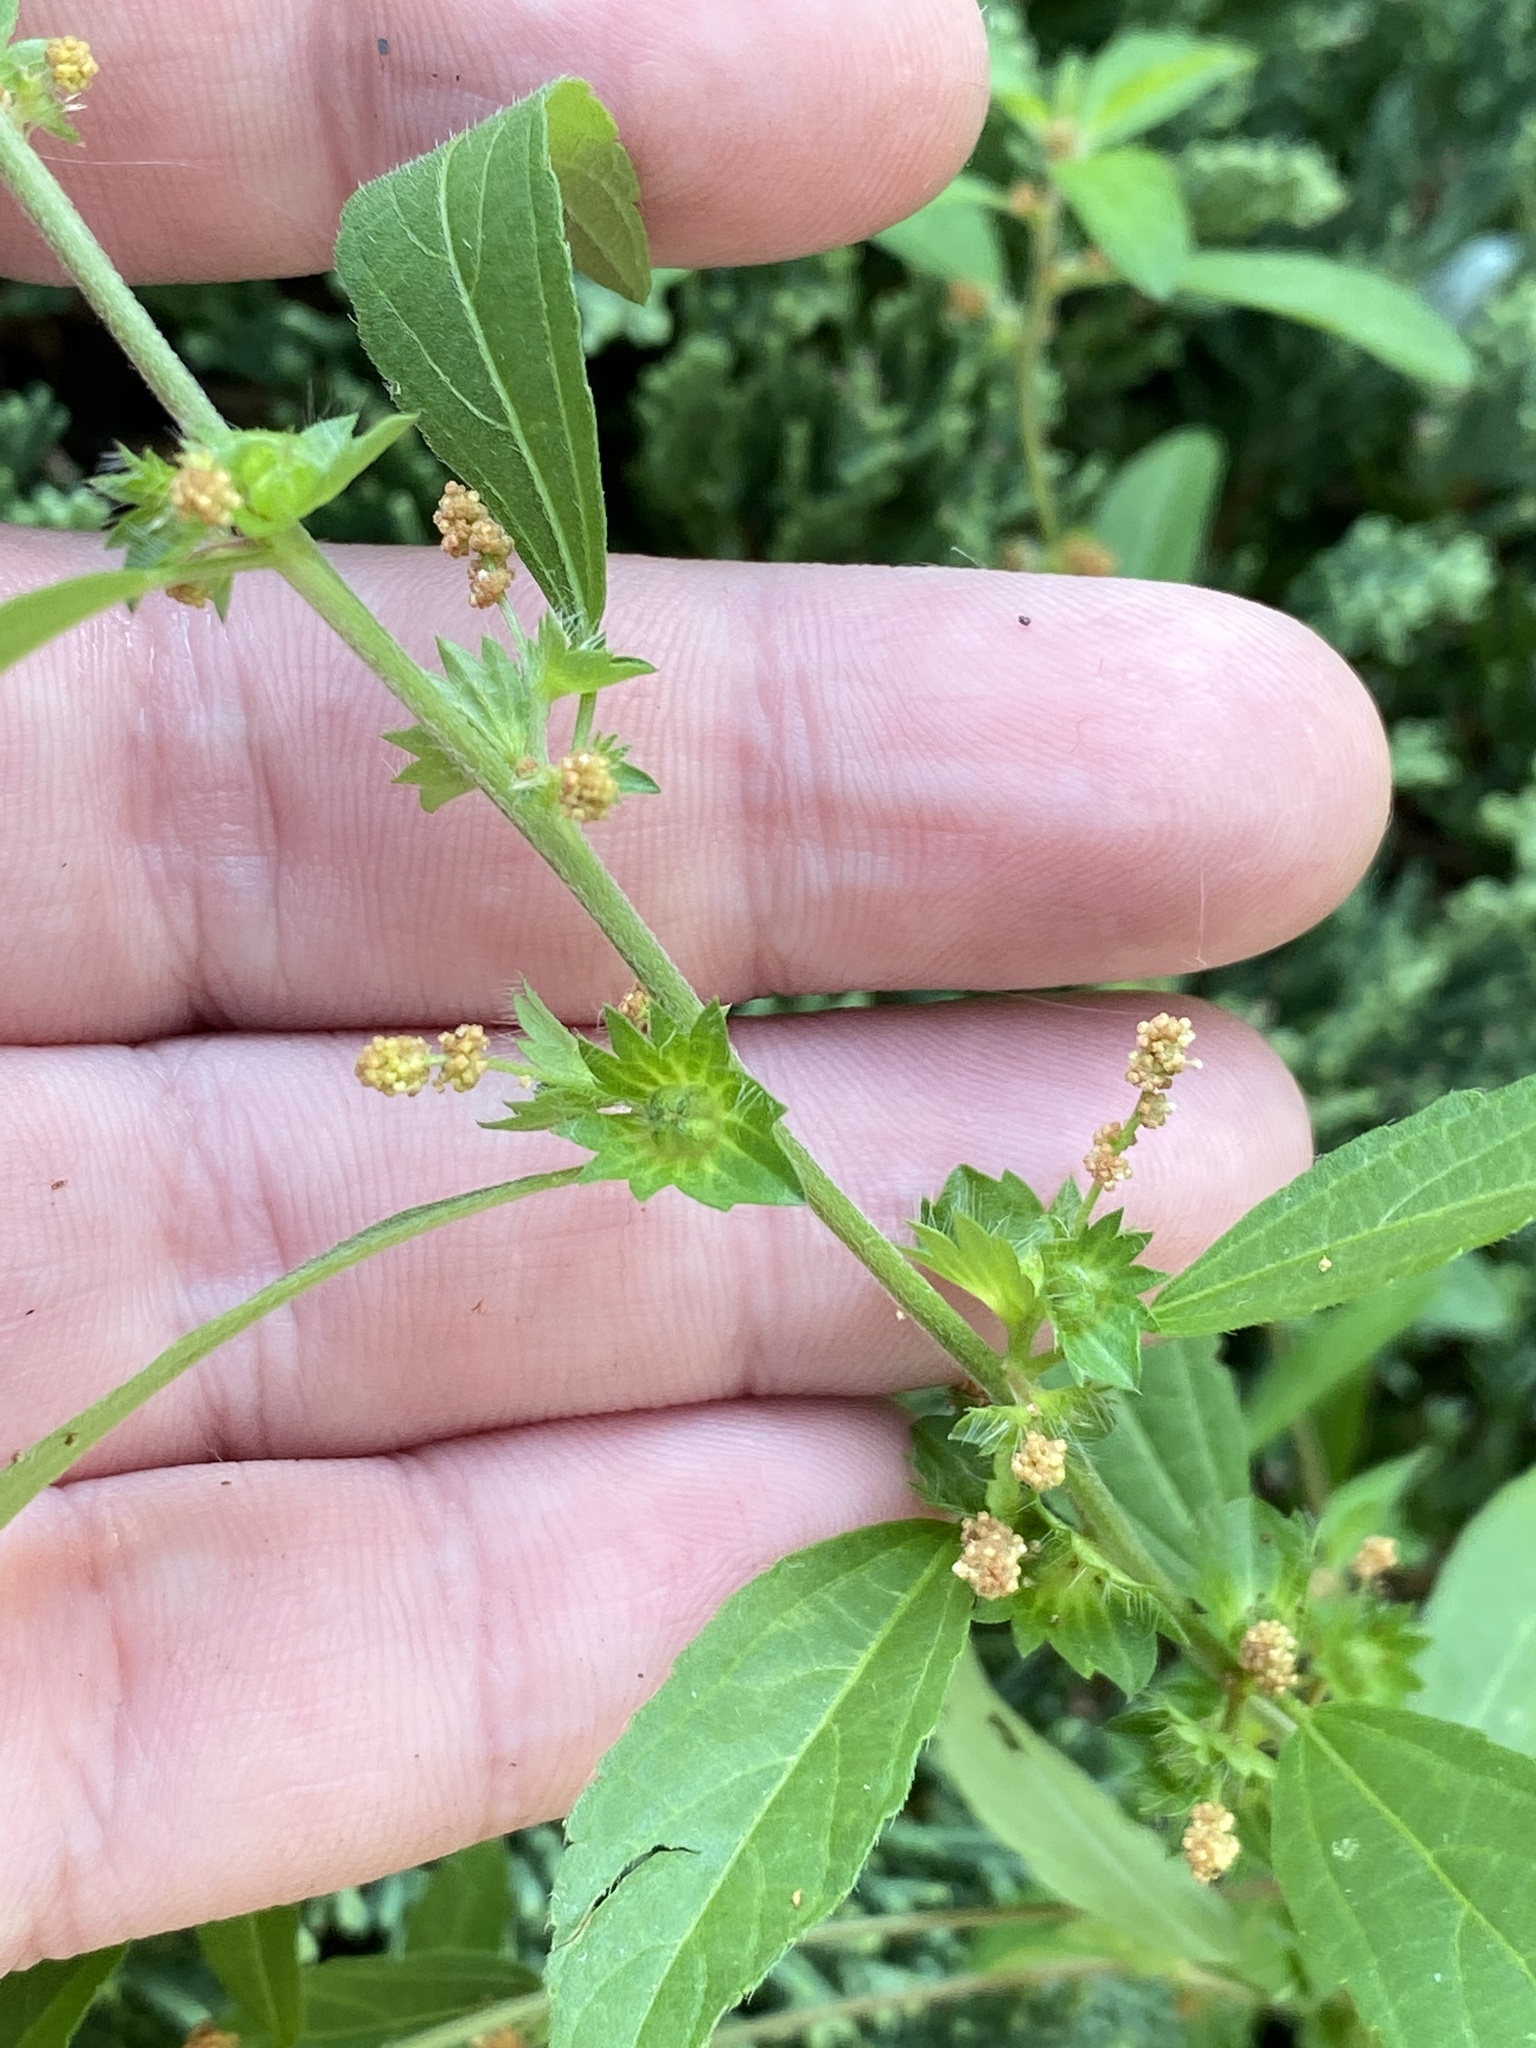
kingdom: Plantae
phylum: Tracheophyta
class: Magnoliopsida
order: Malpighiales
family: Euphorbiaceae
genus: Acalypha
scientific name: Acalypha virginica
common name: Virginia copperleaf
